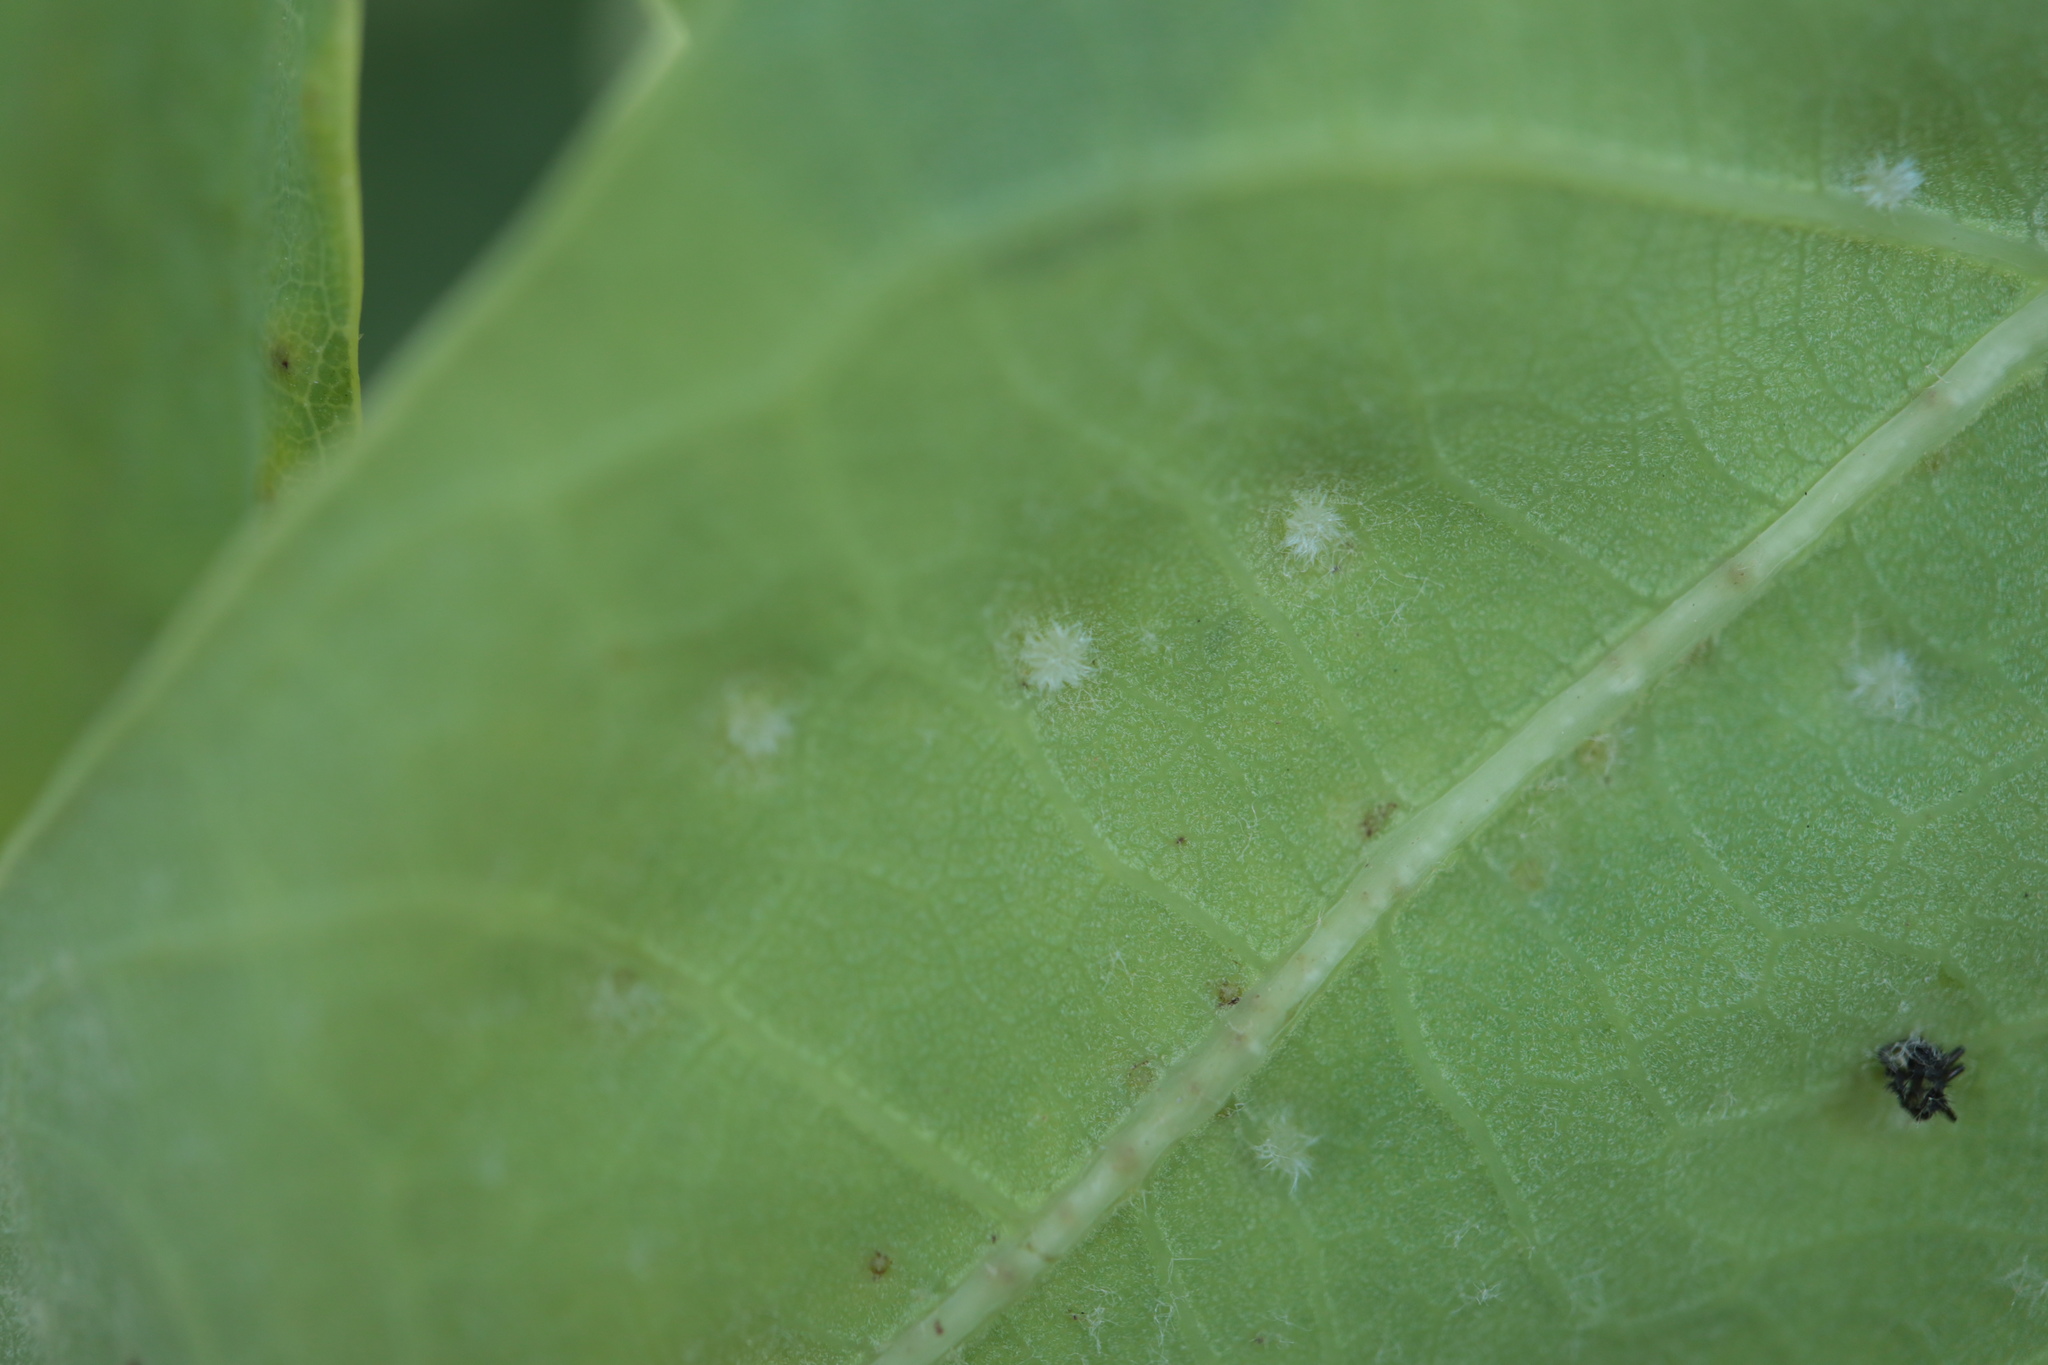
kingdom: Animalia
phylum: Arthropoda
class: Insecta
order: Hymenoptera
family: Cynipidae
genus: Neuroterus
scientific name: Neuroterus quercusverrucarum
